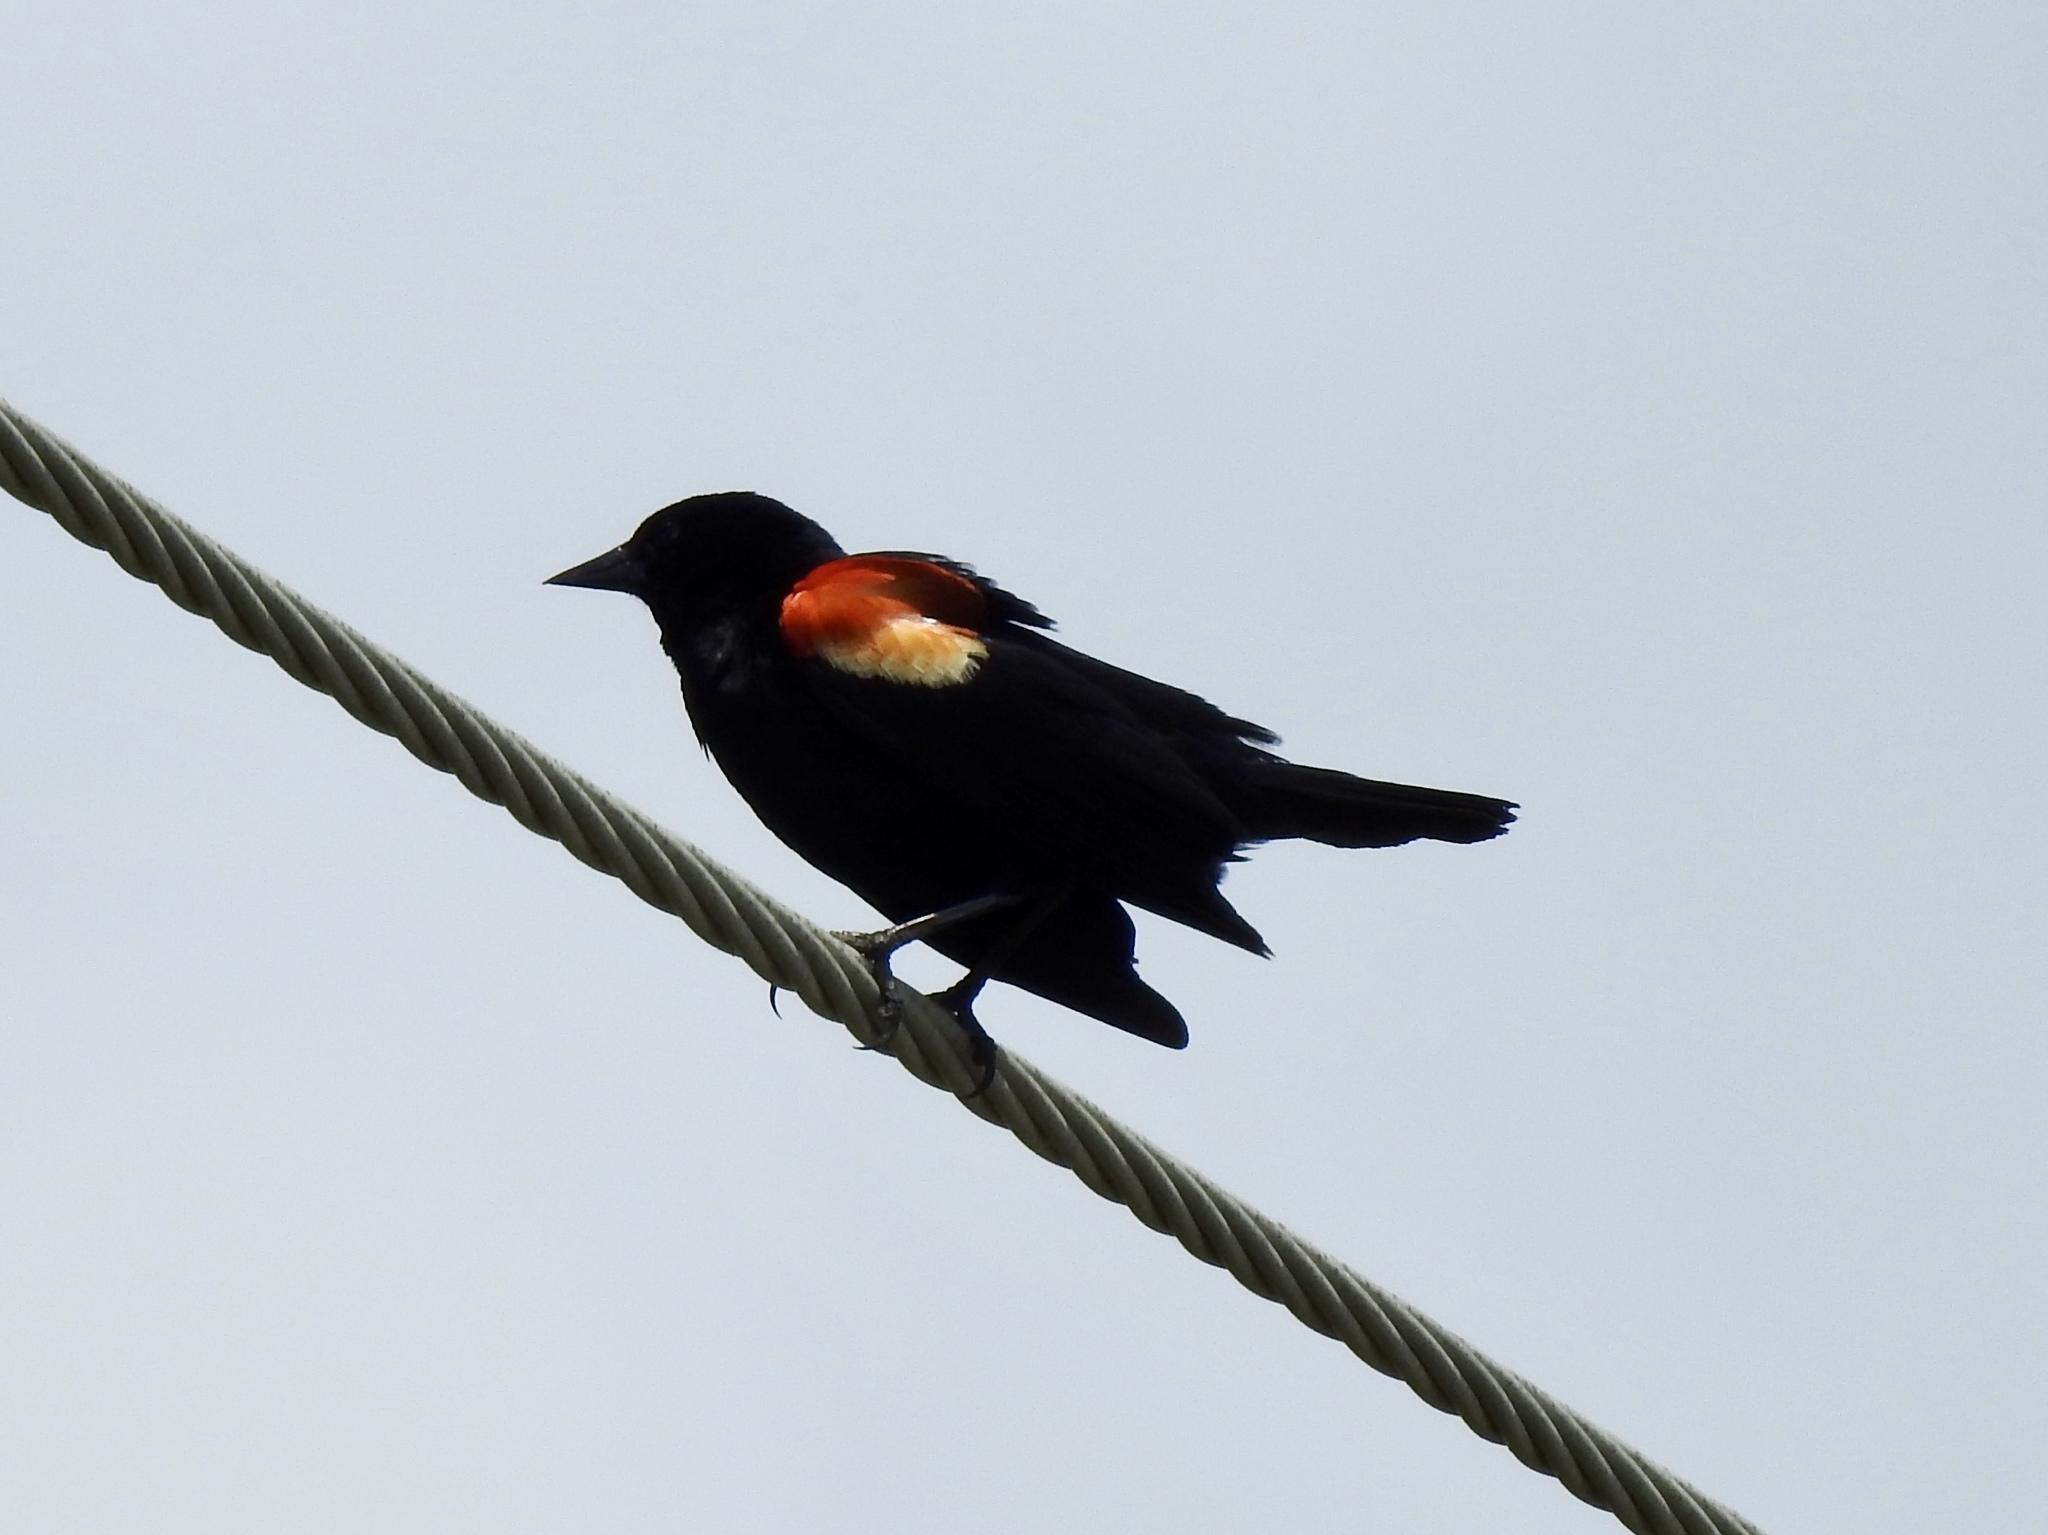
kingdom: Animalia
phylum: Chordata
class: Aves
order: Passeriformes
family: Icteridae
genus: Agelaius
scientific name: Agelaius phoeniceus
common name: Red-winged blackbird
